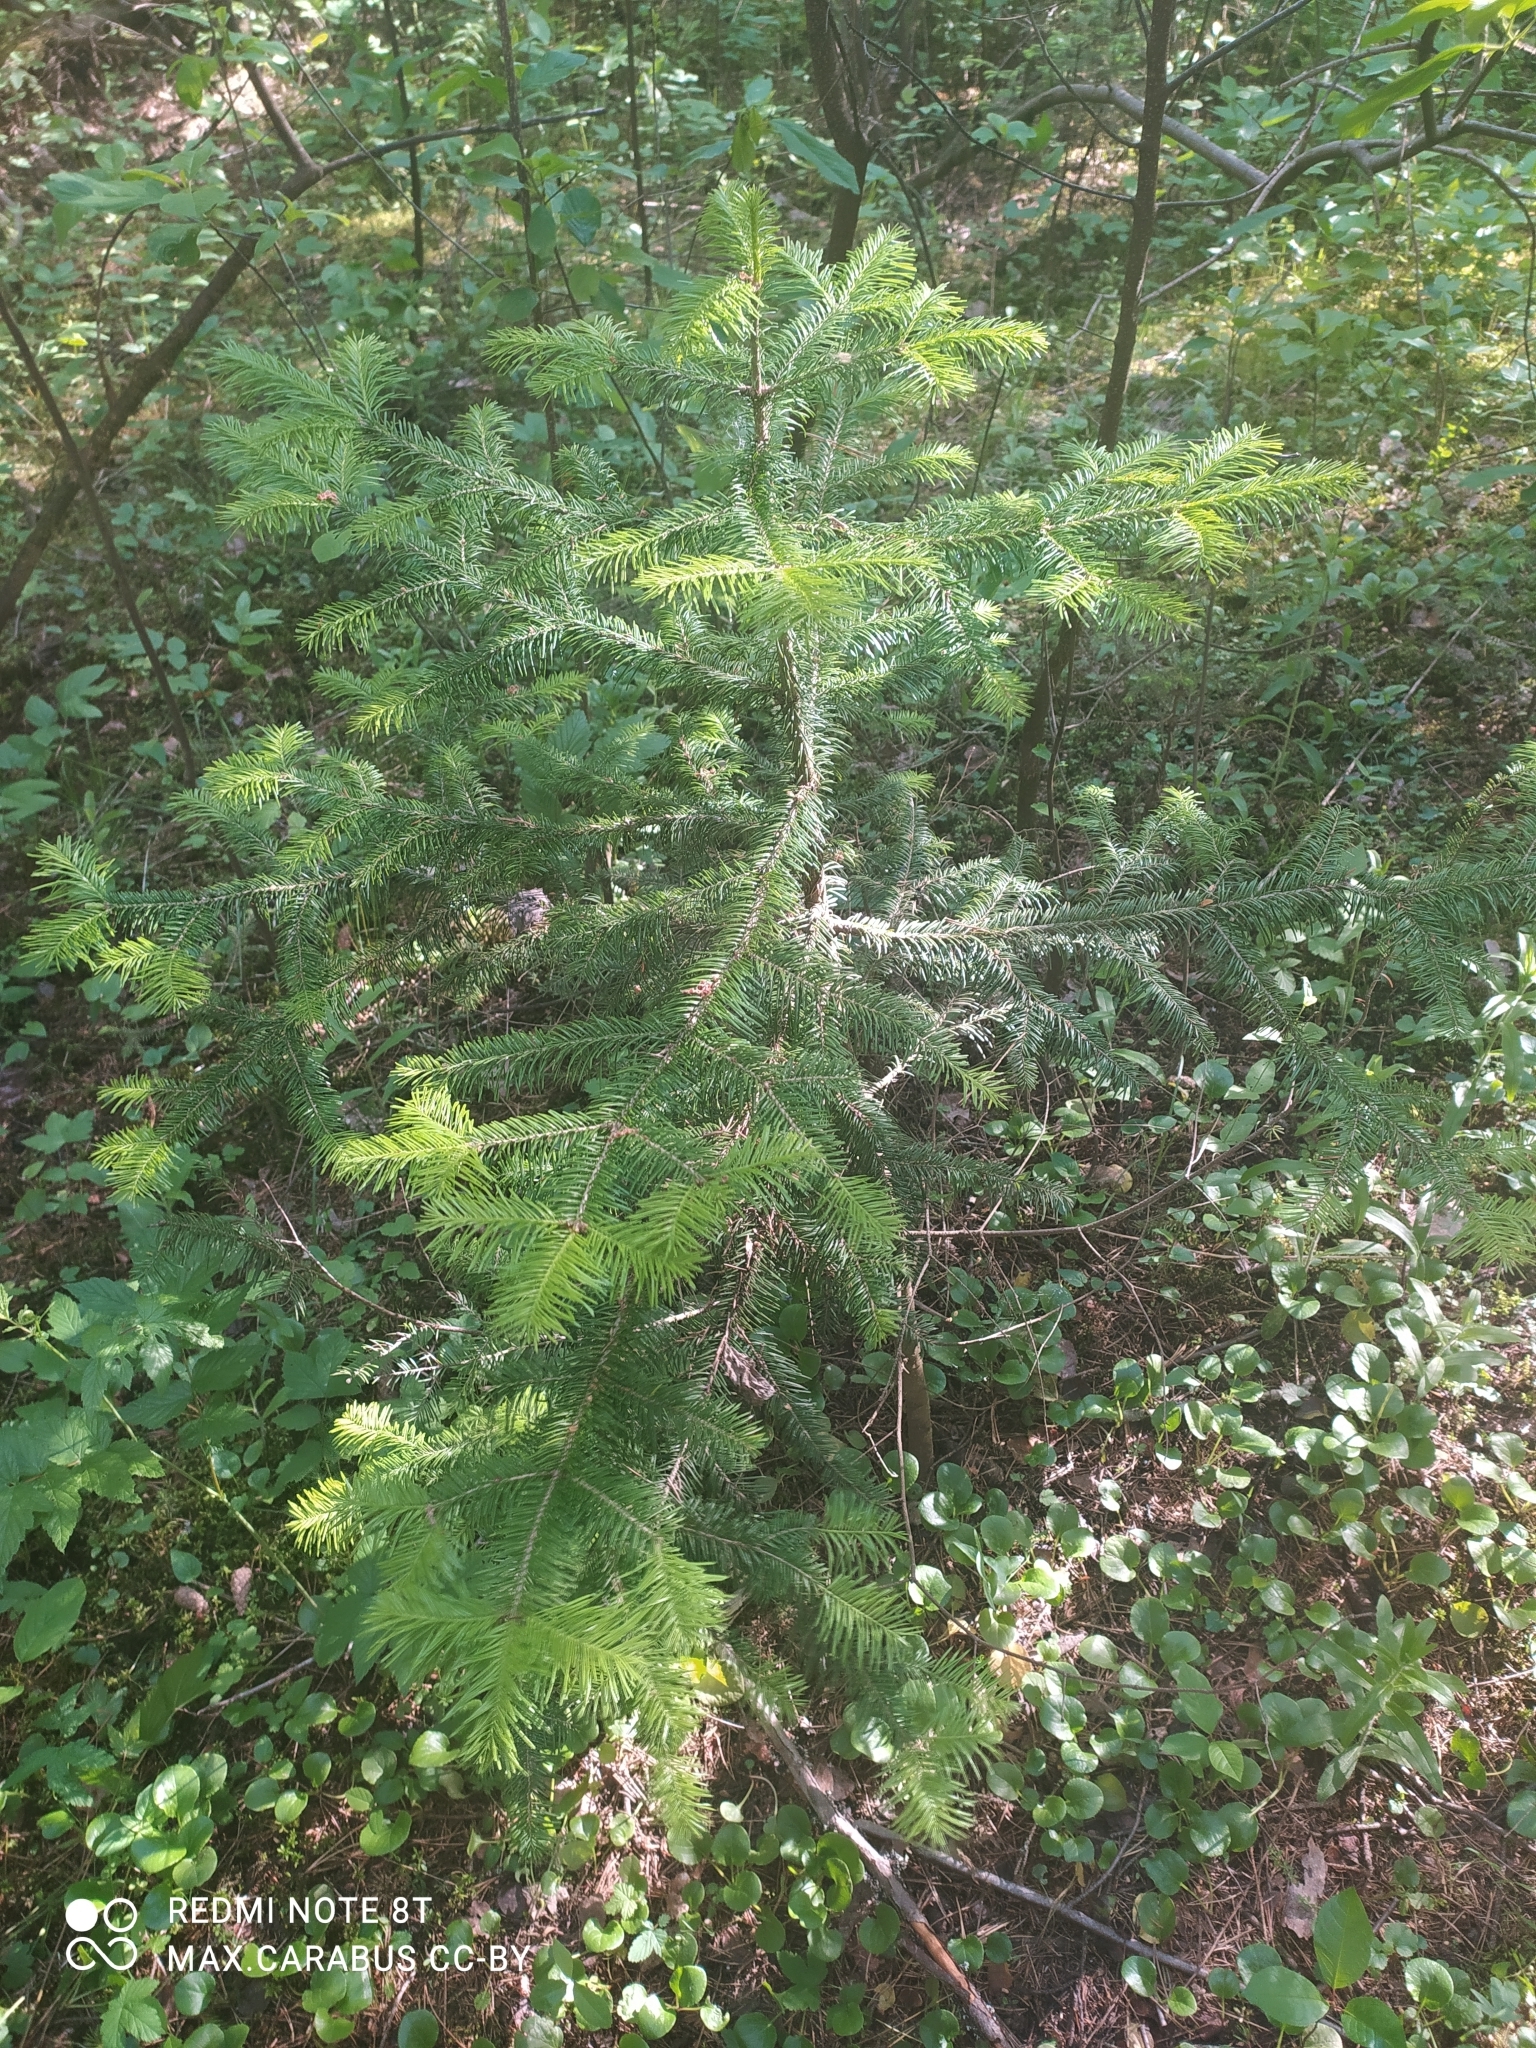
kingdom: Plantae
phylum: Tracheophyta
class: Pinopsida
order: Pinales
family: Pinaceae
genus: Abies
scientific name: Abies sibirica
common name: Siberian fir
